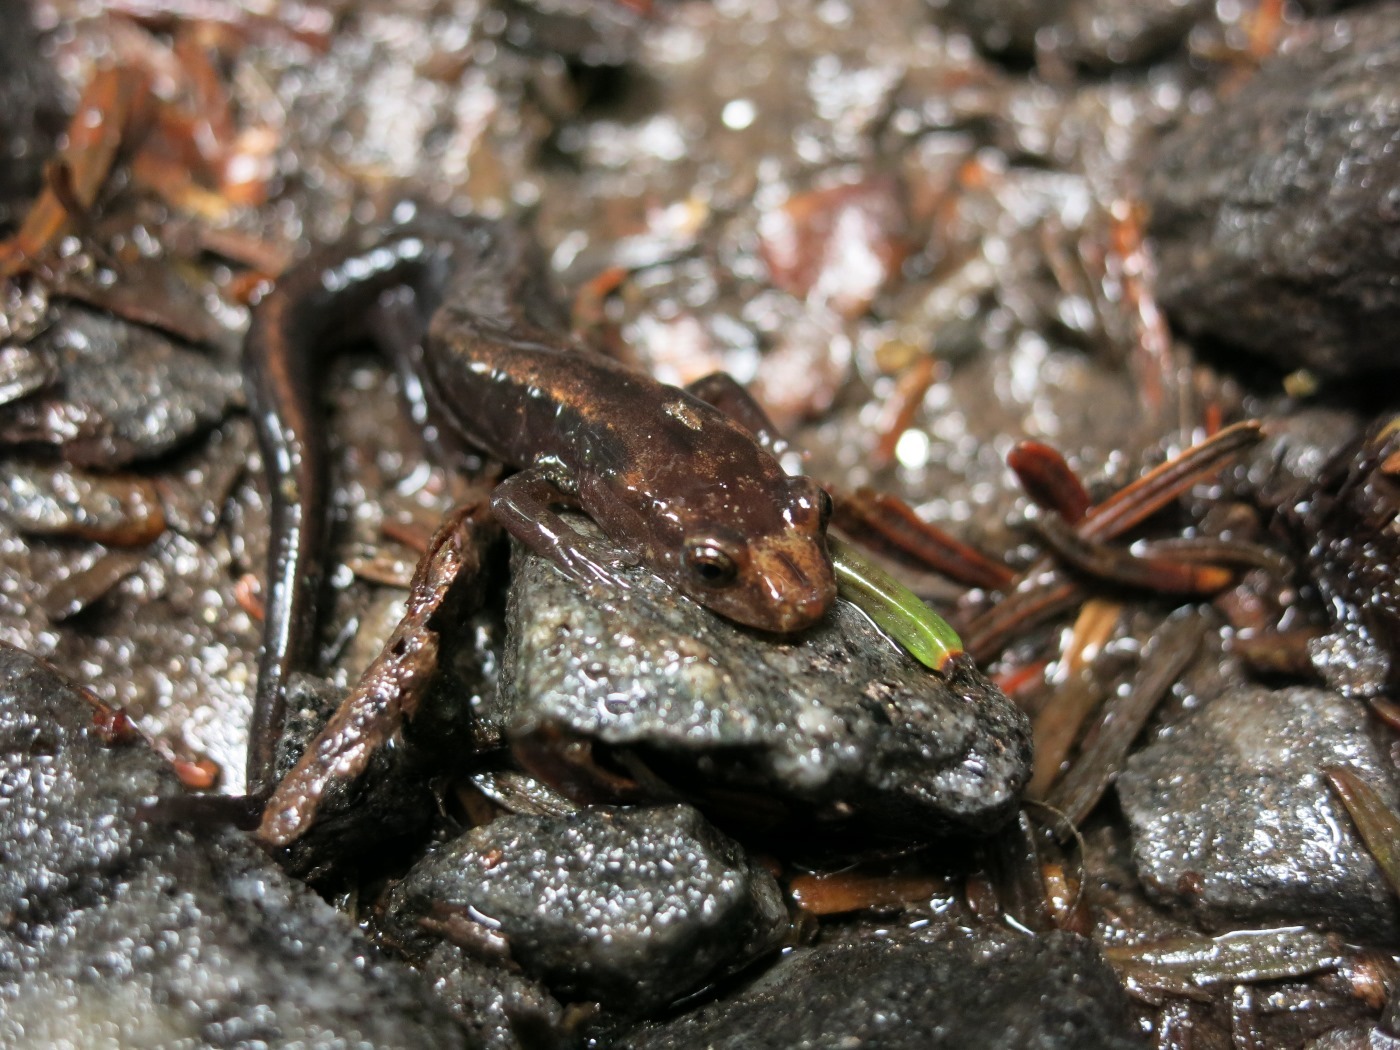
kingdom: Animalia
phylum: Chordata
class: Amphibia
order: Caudata
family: Plethodontidae
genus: Desmognathus
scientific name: Desmognathus carolinensis
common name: Carolina mountain dusky salamander
